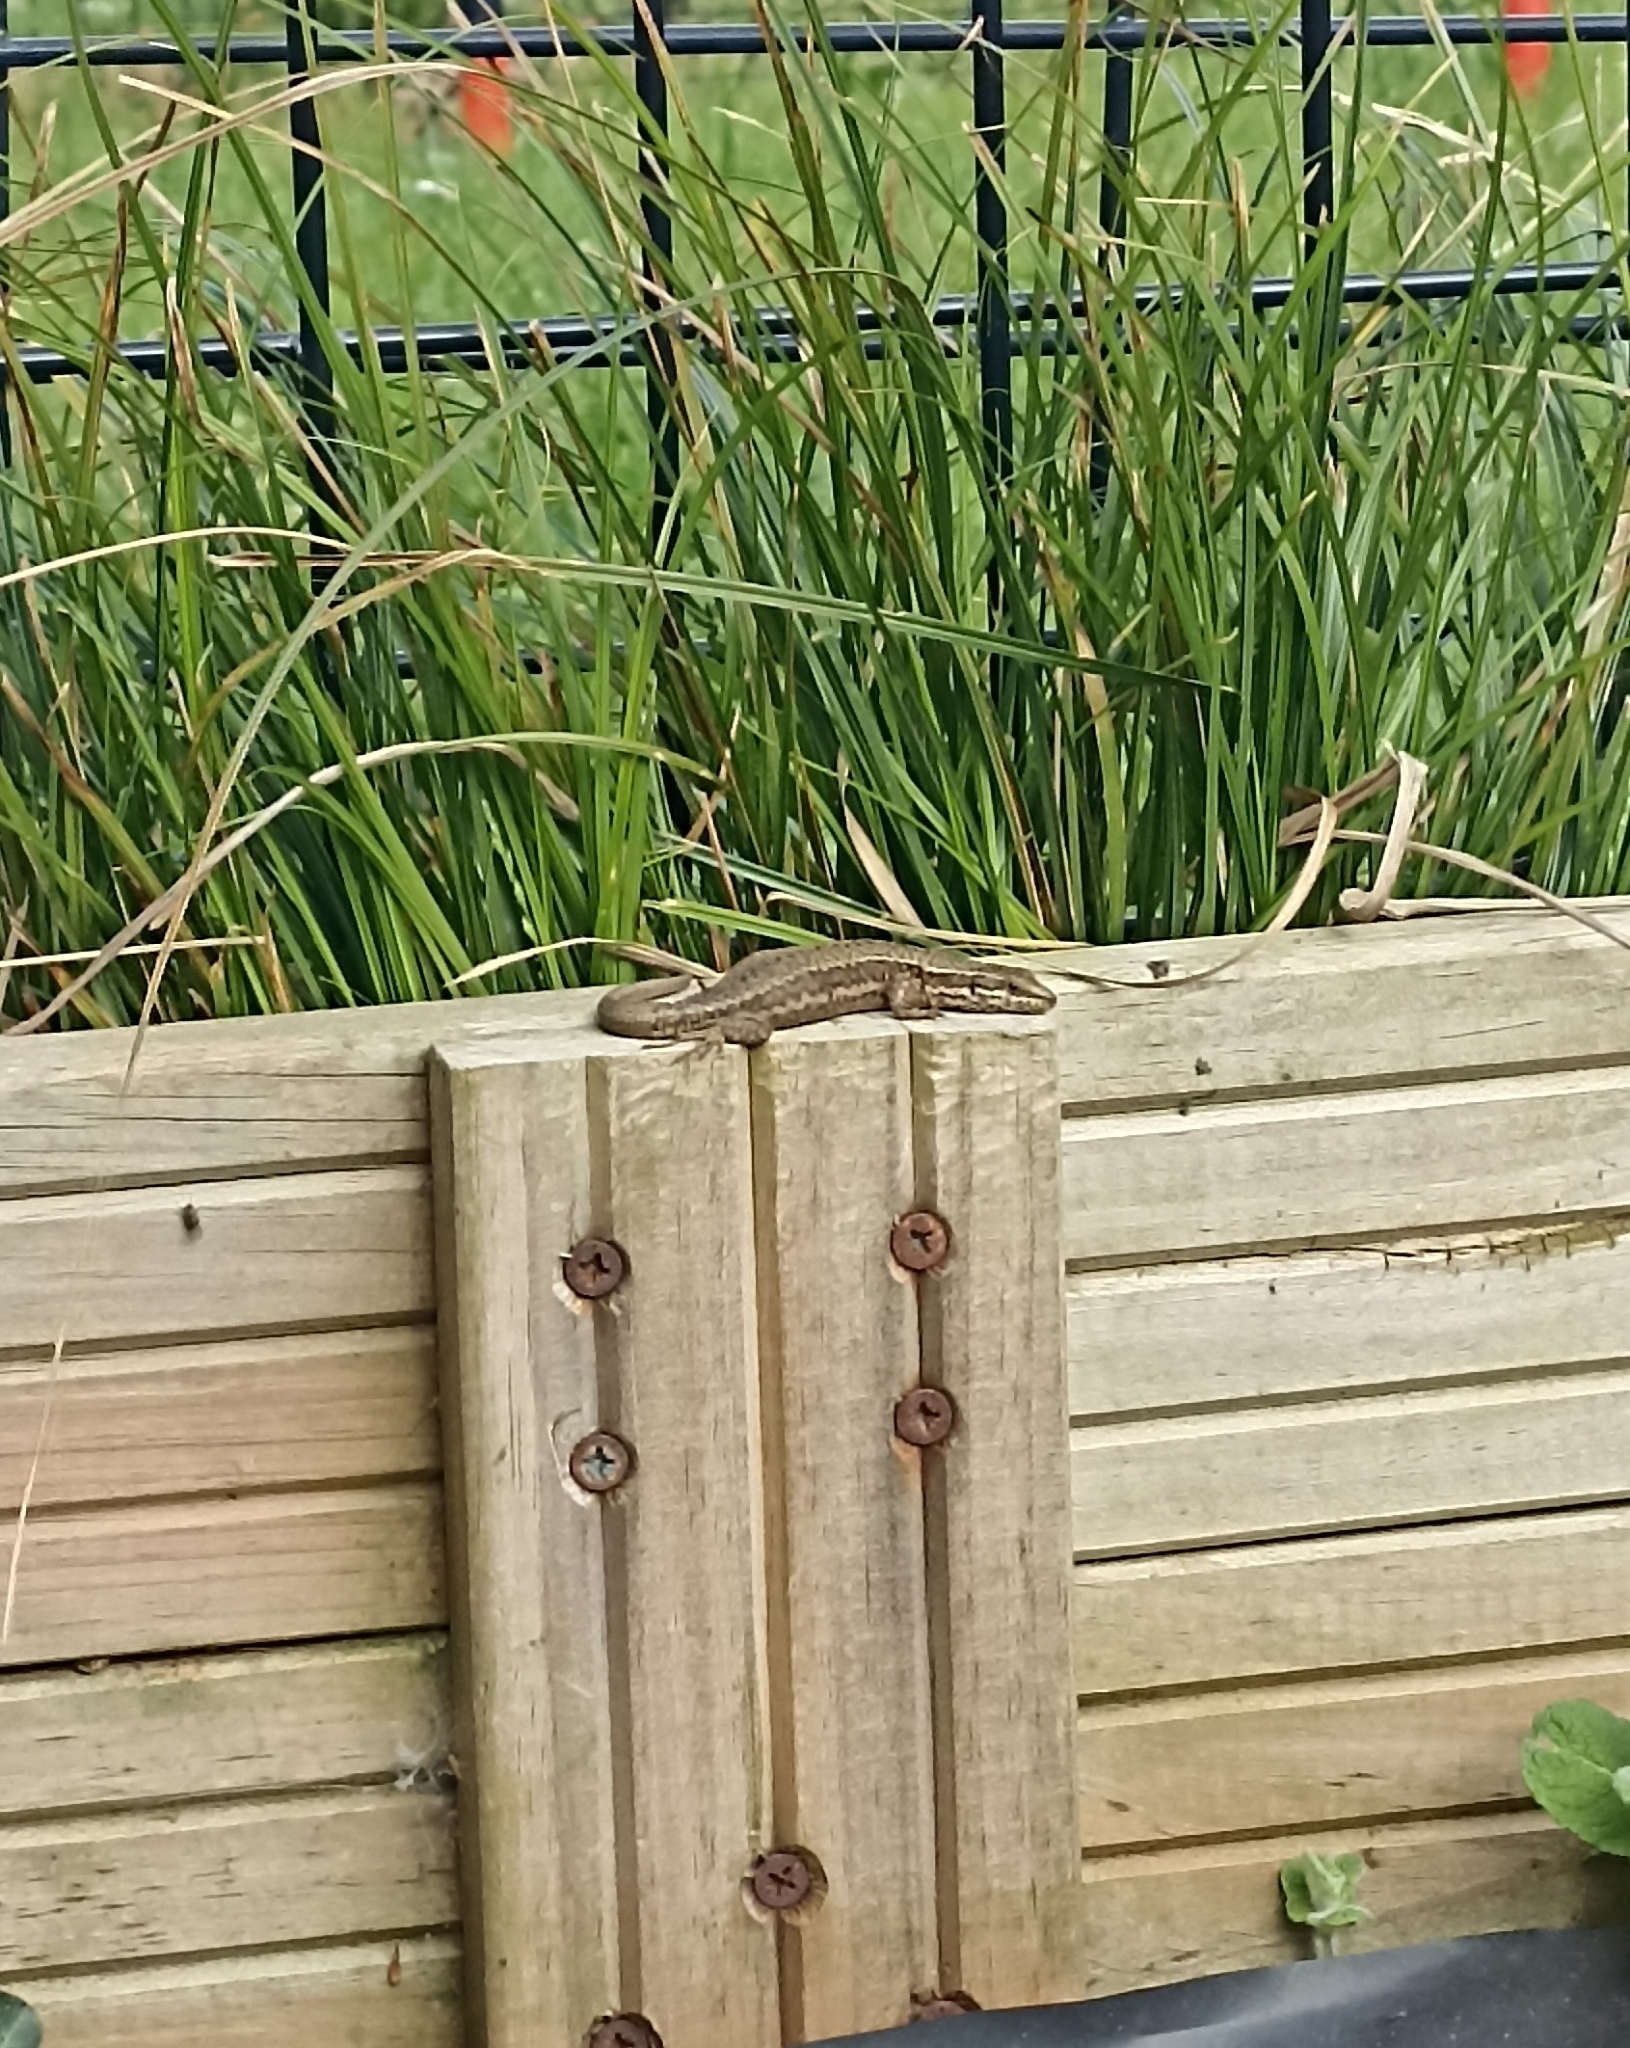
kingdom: Animalia
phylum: Chordata
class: Squamata
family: Lacertidae
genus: Podarcis
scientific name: Podarcis muralis
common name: Common wall lizard
